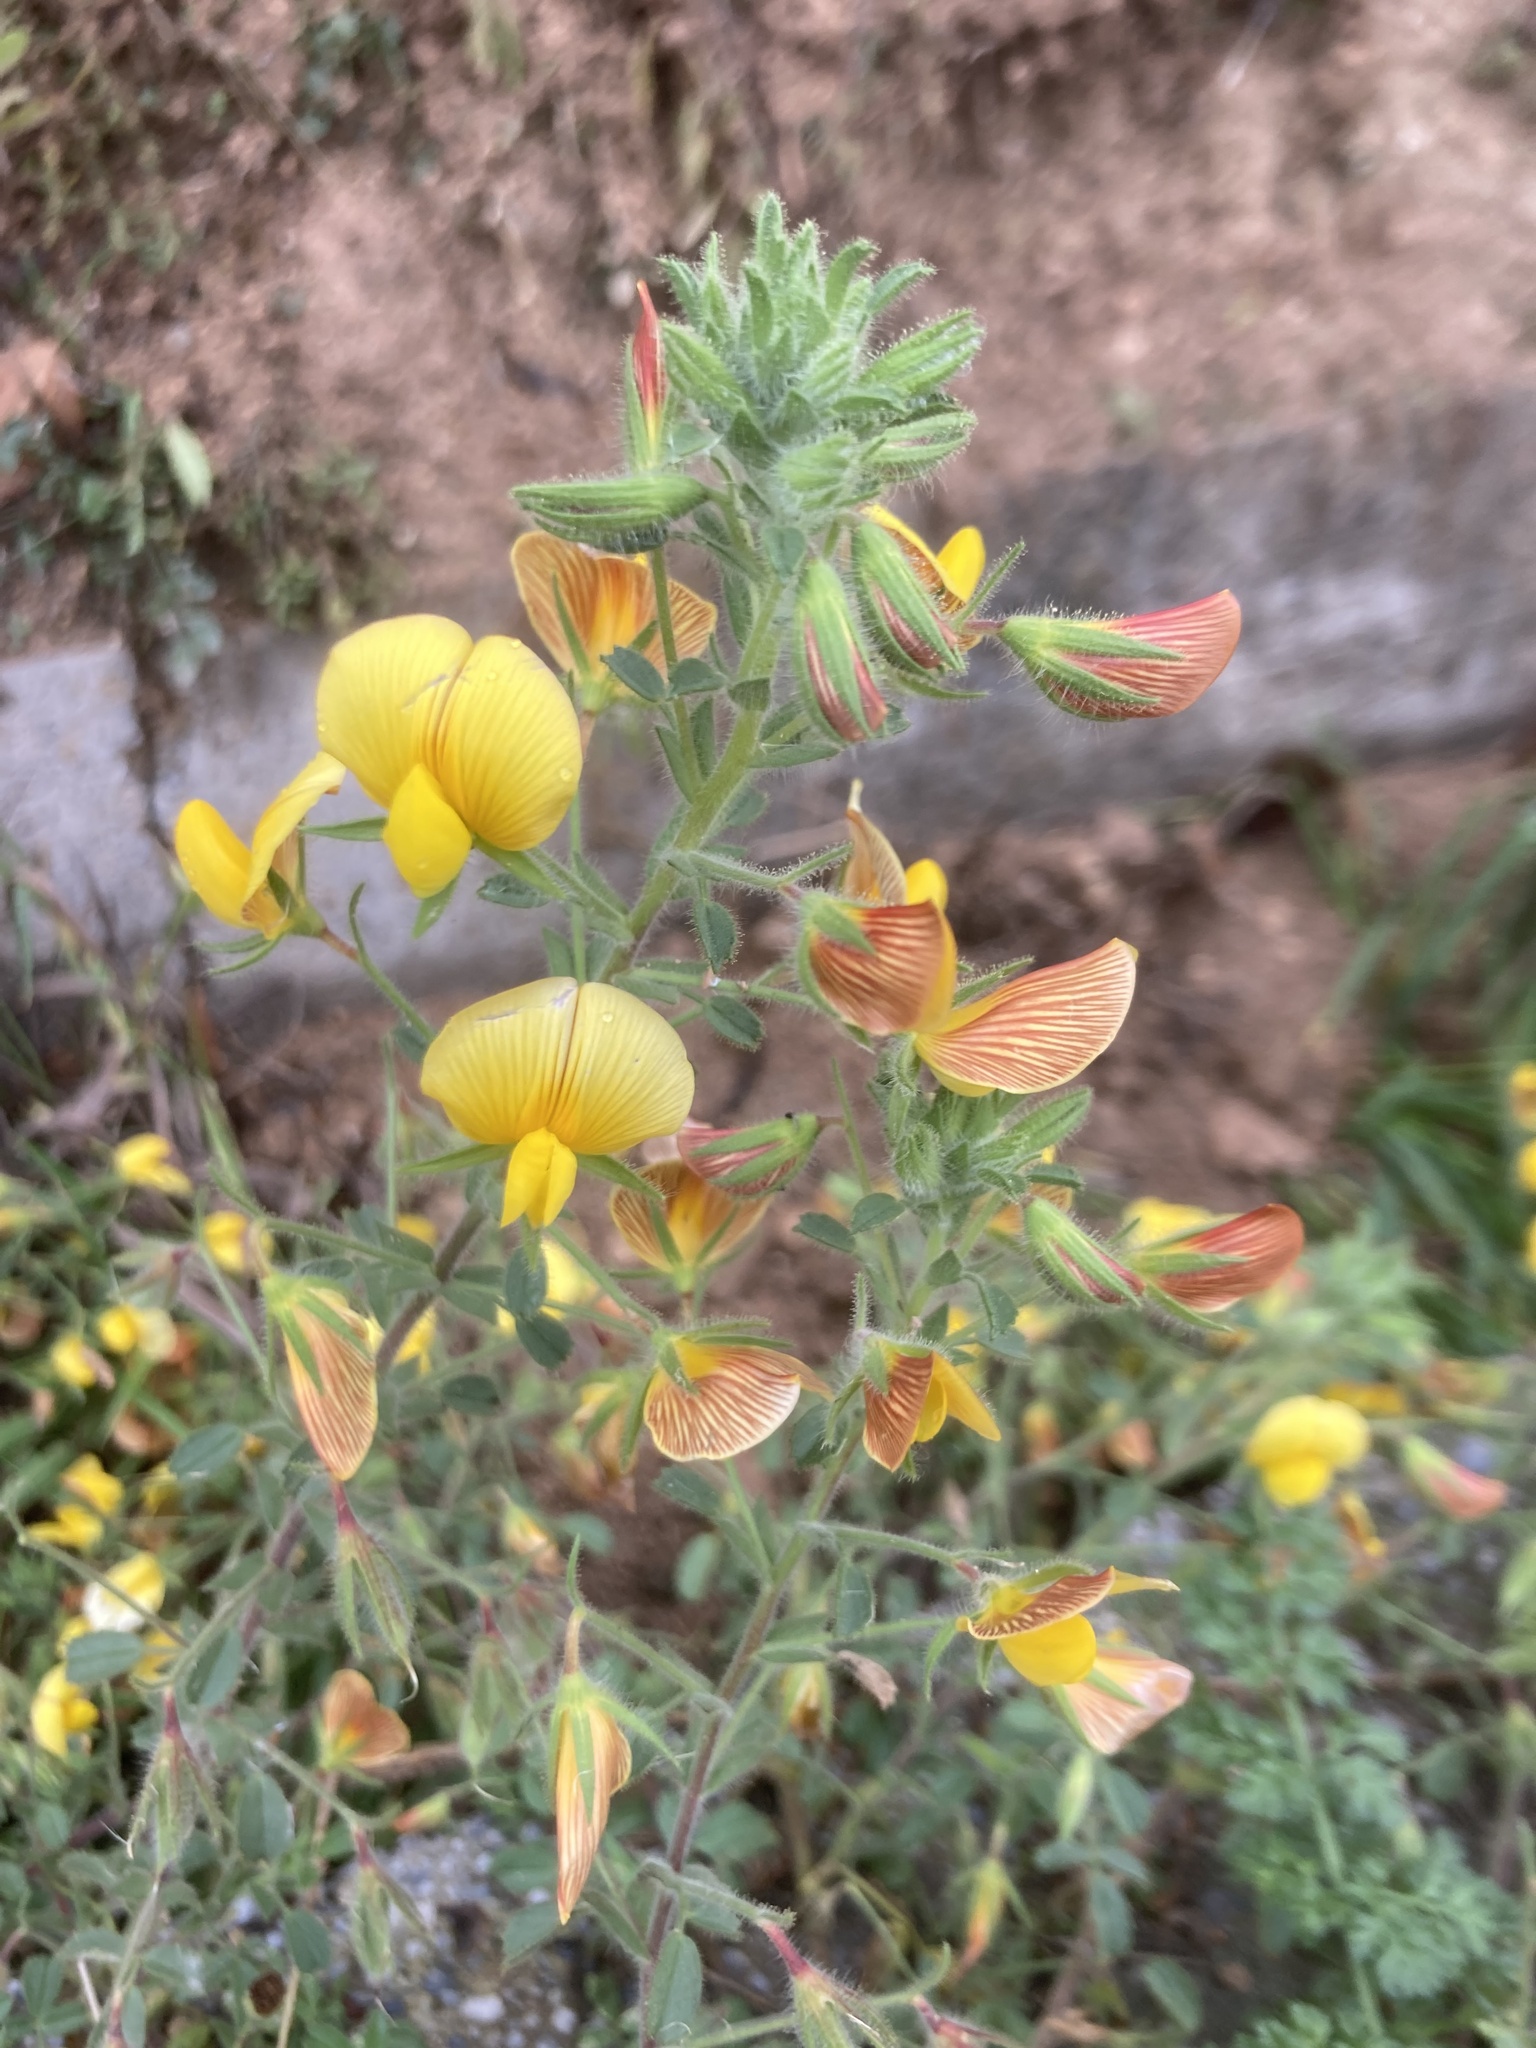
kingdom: Plantae
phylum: Tracheophyta
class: Magnoliopsida
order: Fabales
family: Fabaceae
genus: Ononis
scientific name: Ononis natrix
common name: Yellow restharrow
